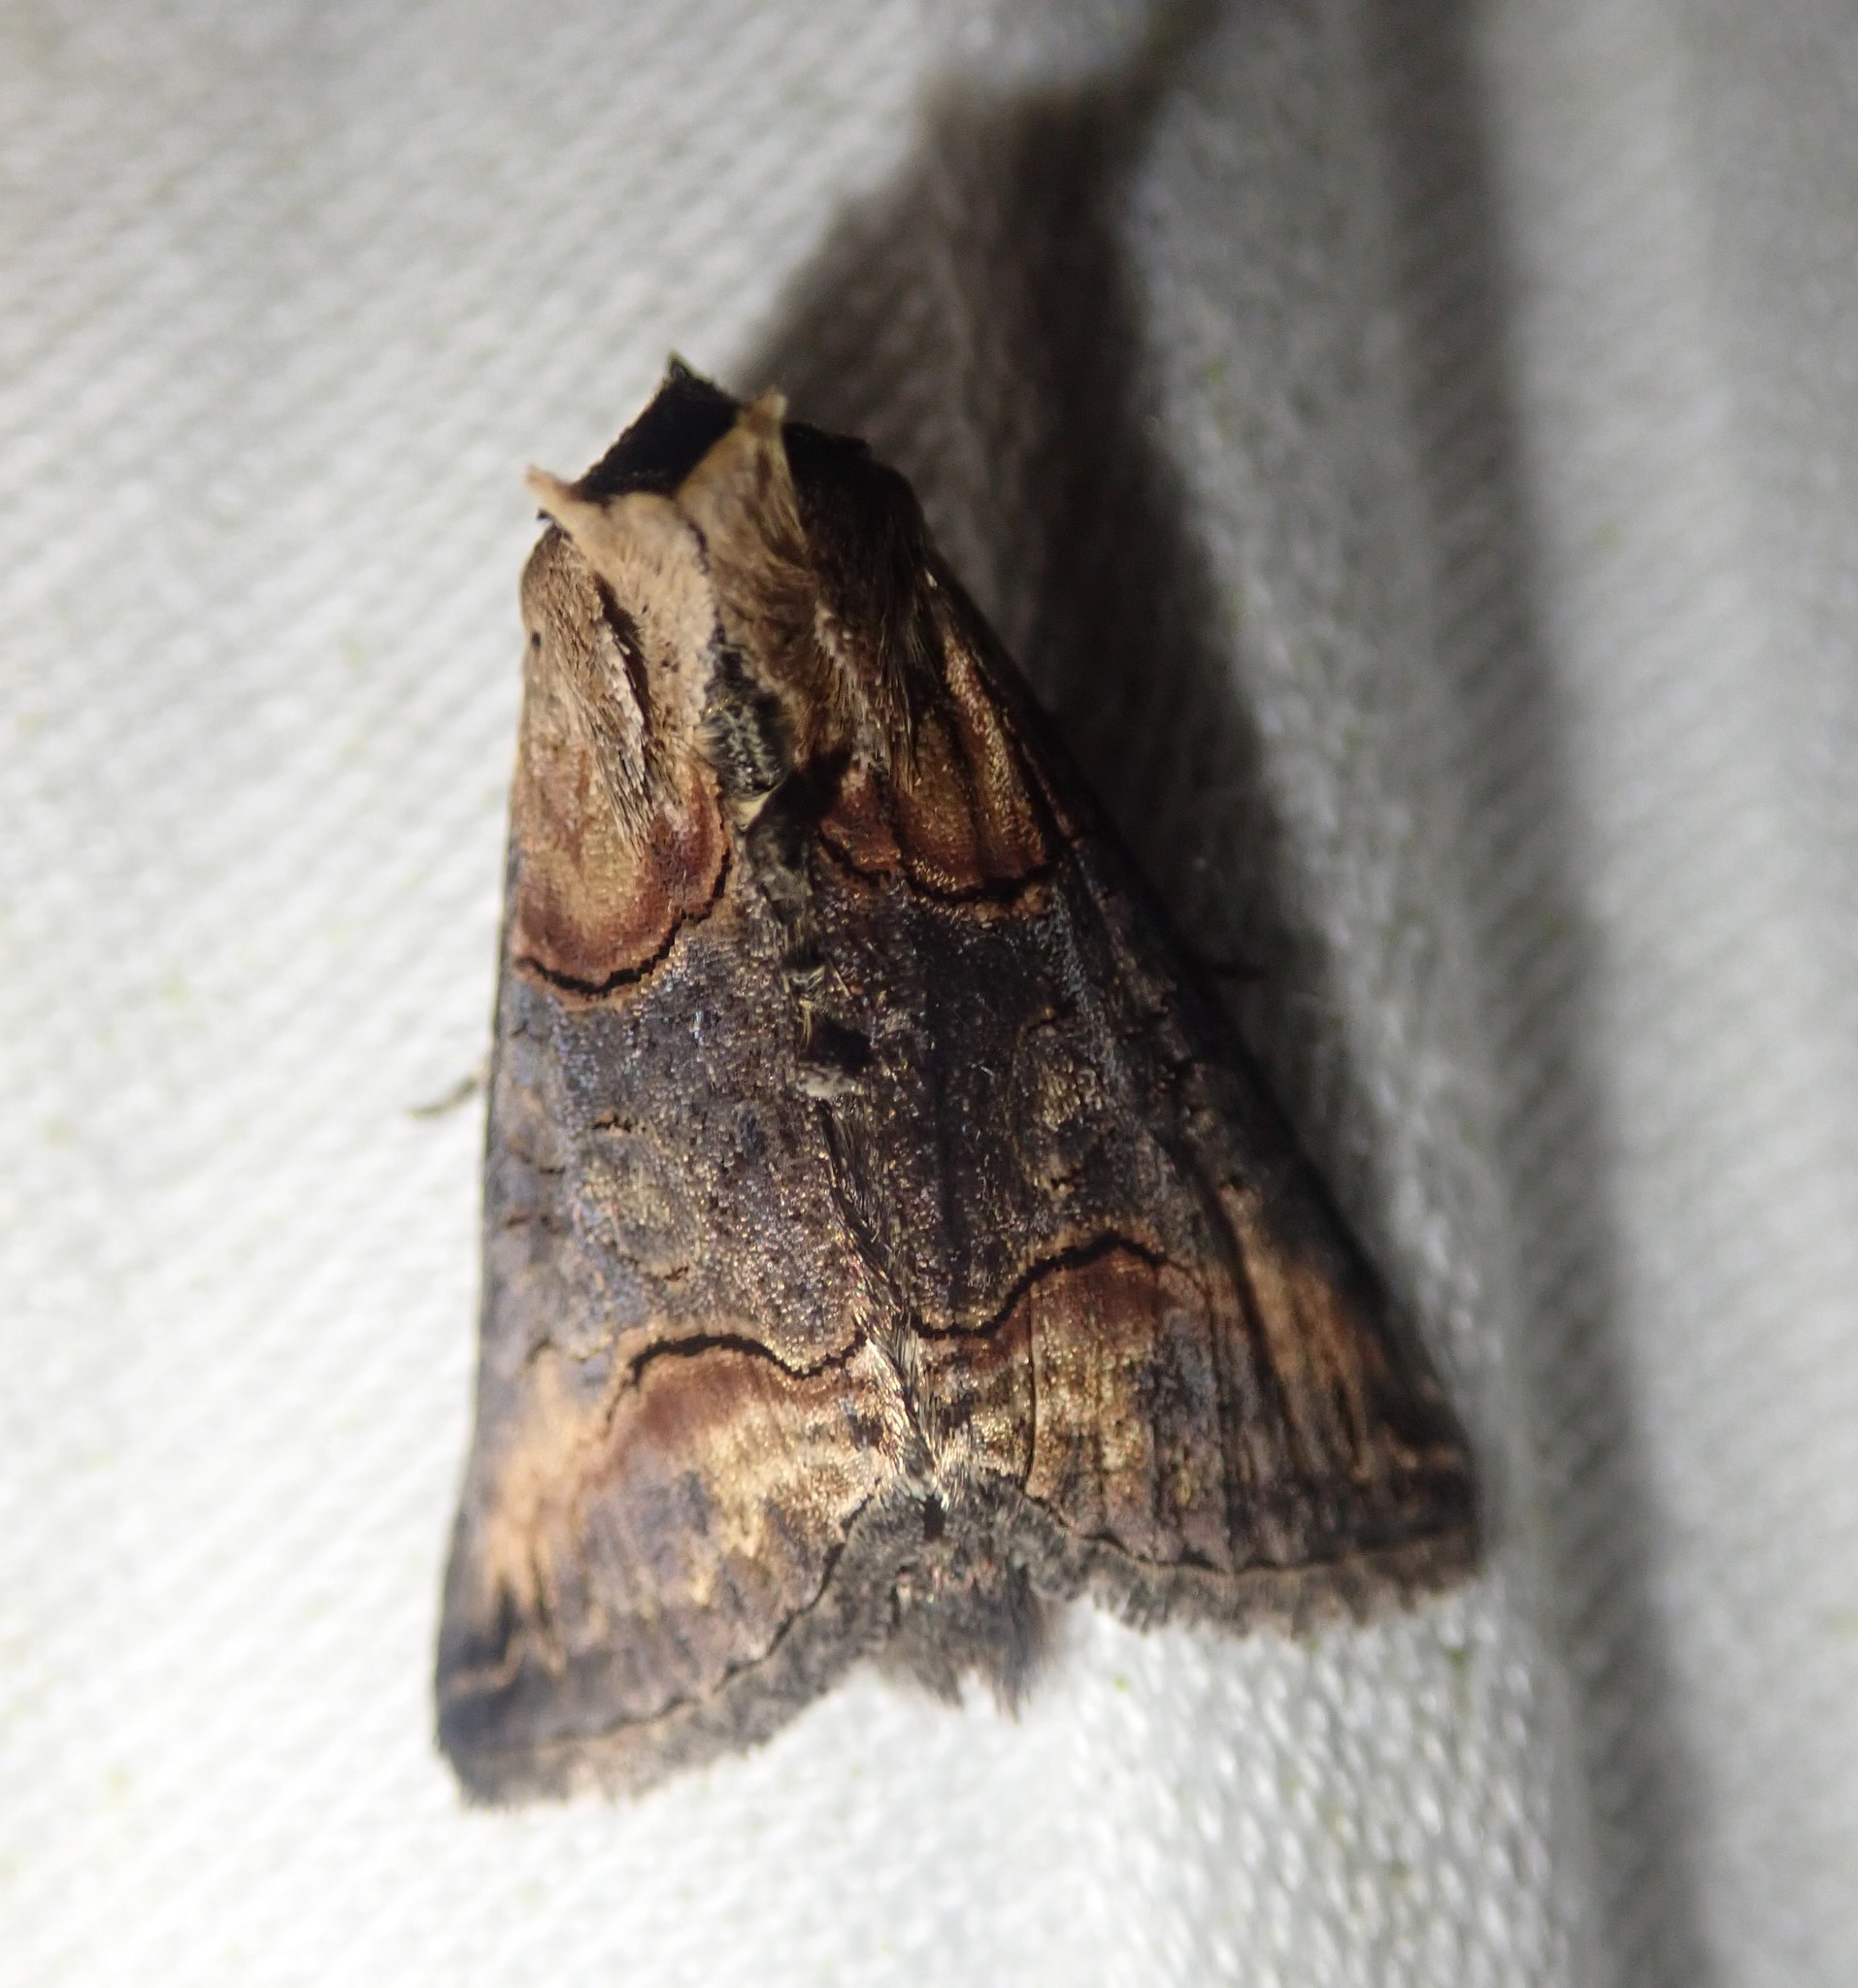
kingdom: Animalia
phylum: Arthropoda
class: Insecta
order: Lepidoptera
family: Noctuidae
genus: Abrostola
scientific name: Abrostola triplasia
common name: Dark spectacle
